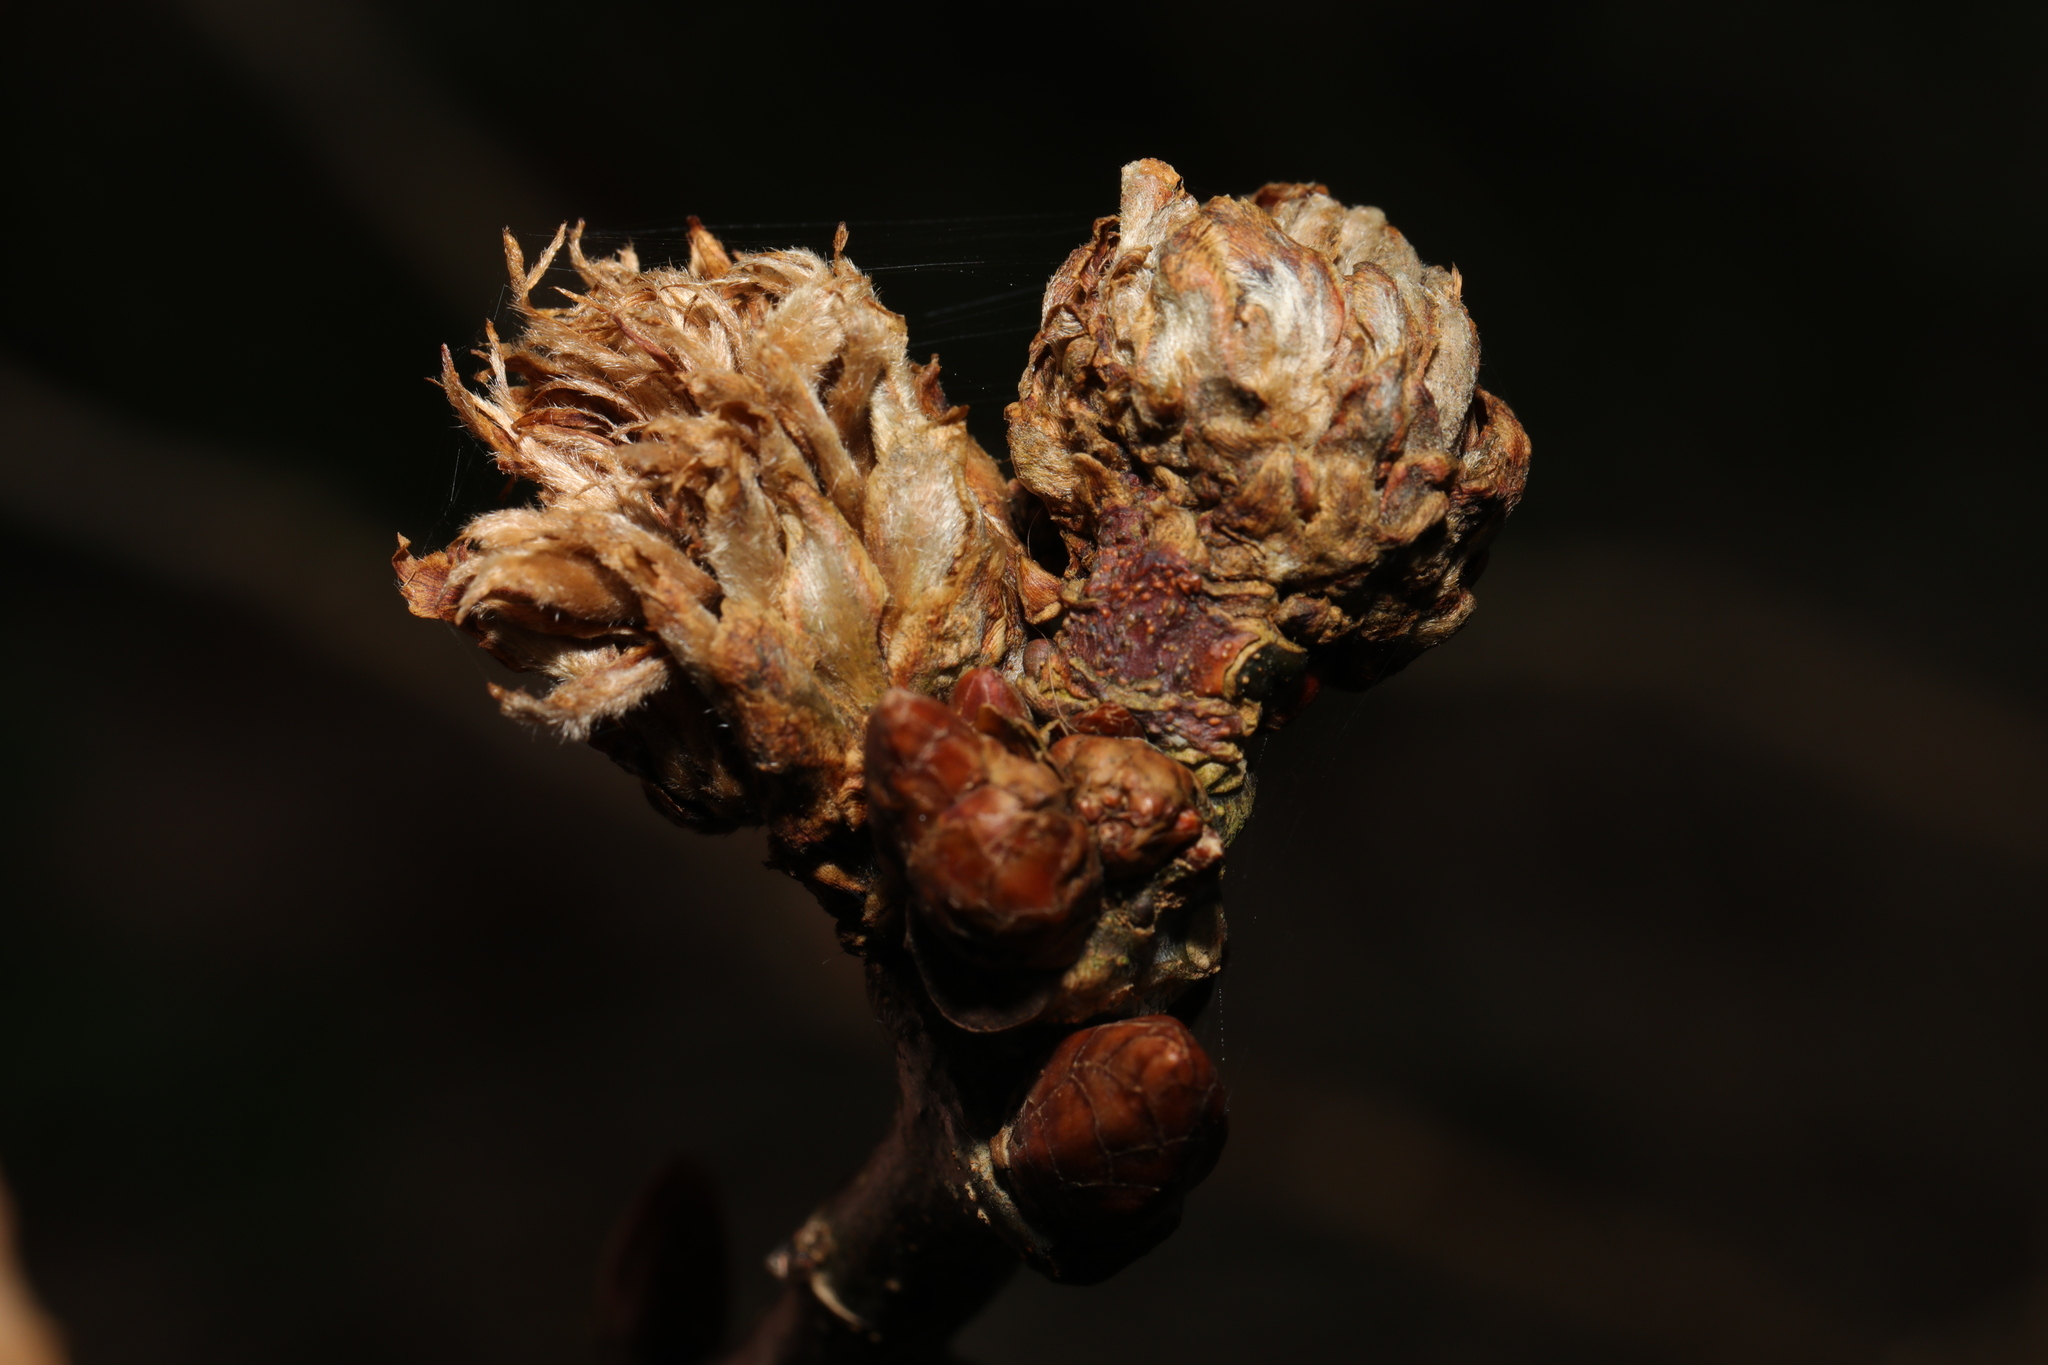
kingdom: Animalia
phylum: Arthropoda
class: Insecta
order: Hymenoptera
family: Cynipidae
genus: Andricus
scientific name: Andricus foecundatrix
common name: Artichoke gall
